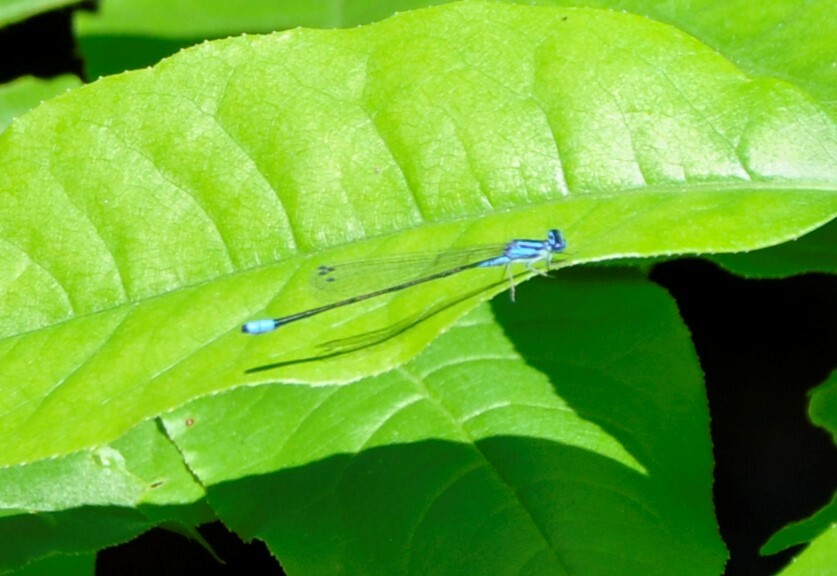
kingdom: Animalia
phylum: Arthropoda
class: Insecta
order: Odonata
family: Coenagrionidae
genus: Enallagma
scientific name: Enallagma divagans
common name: Turquoise bluet
